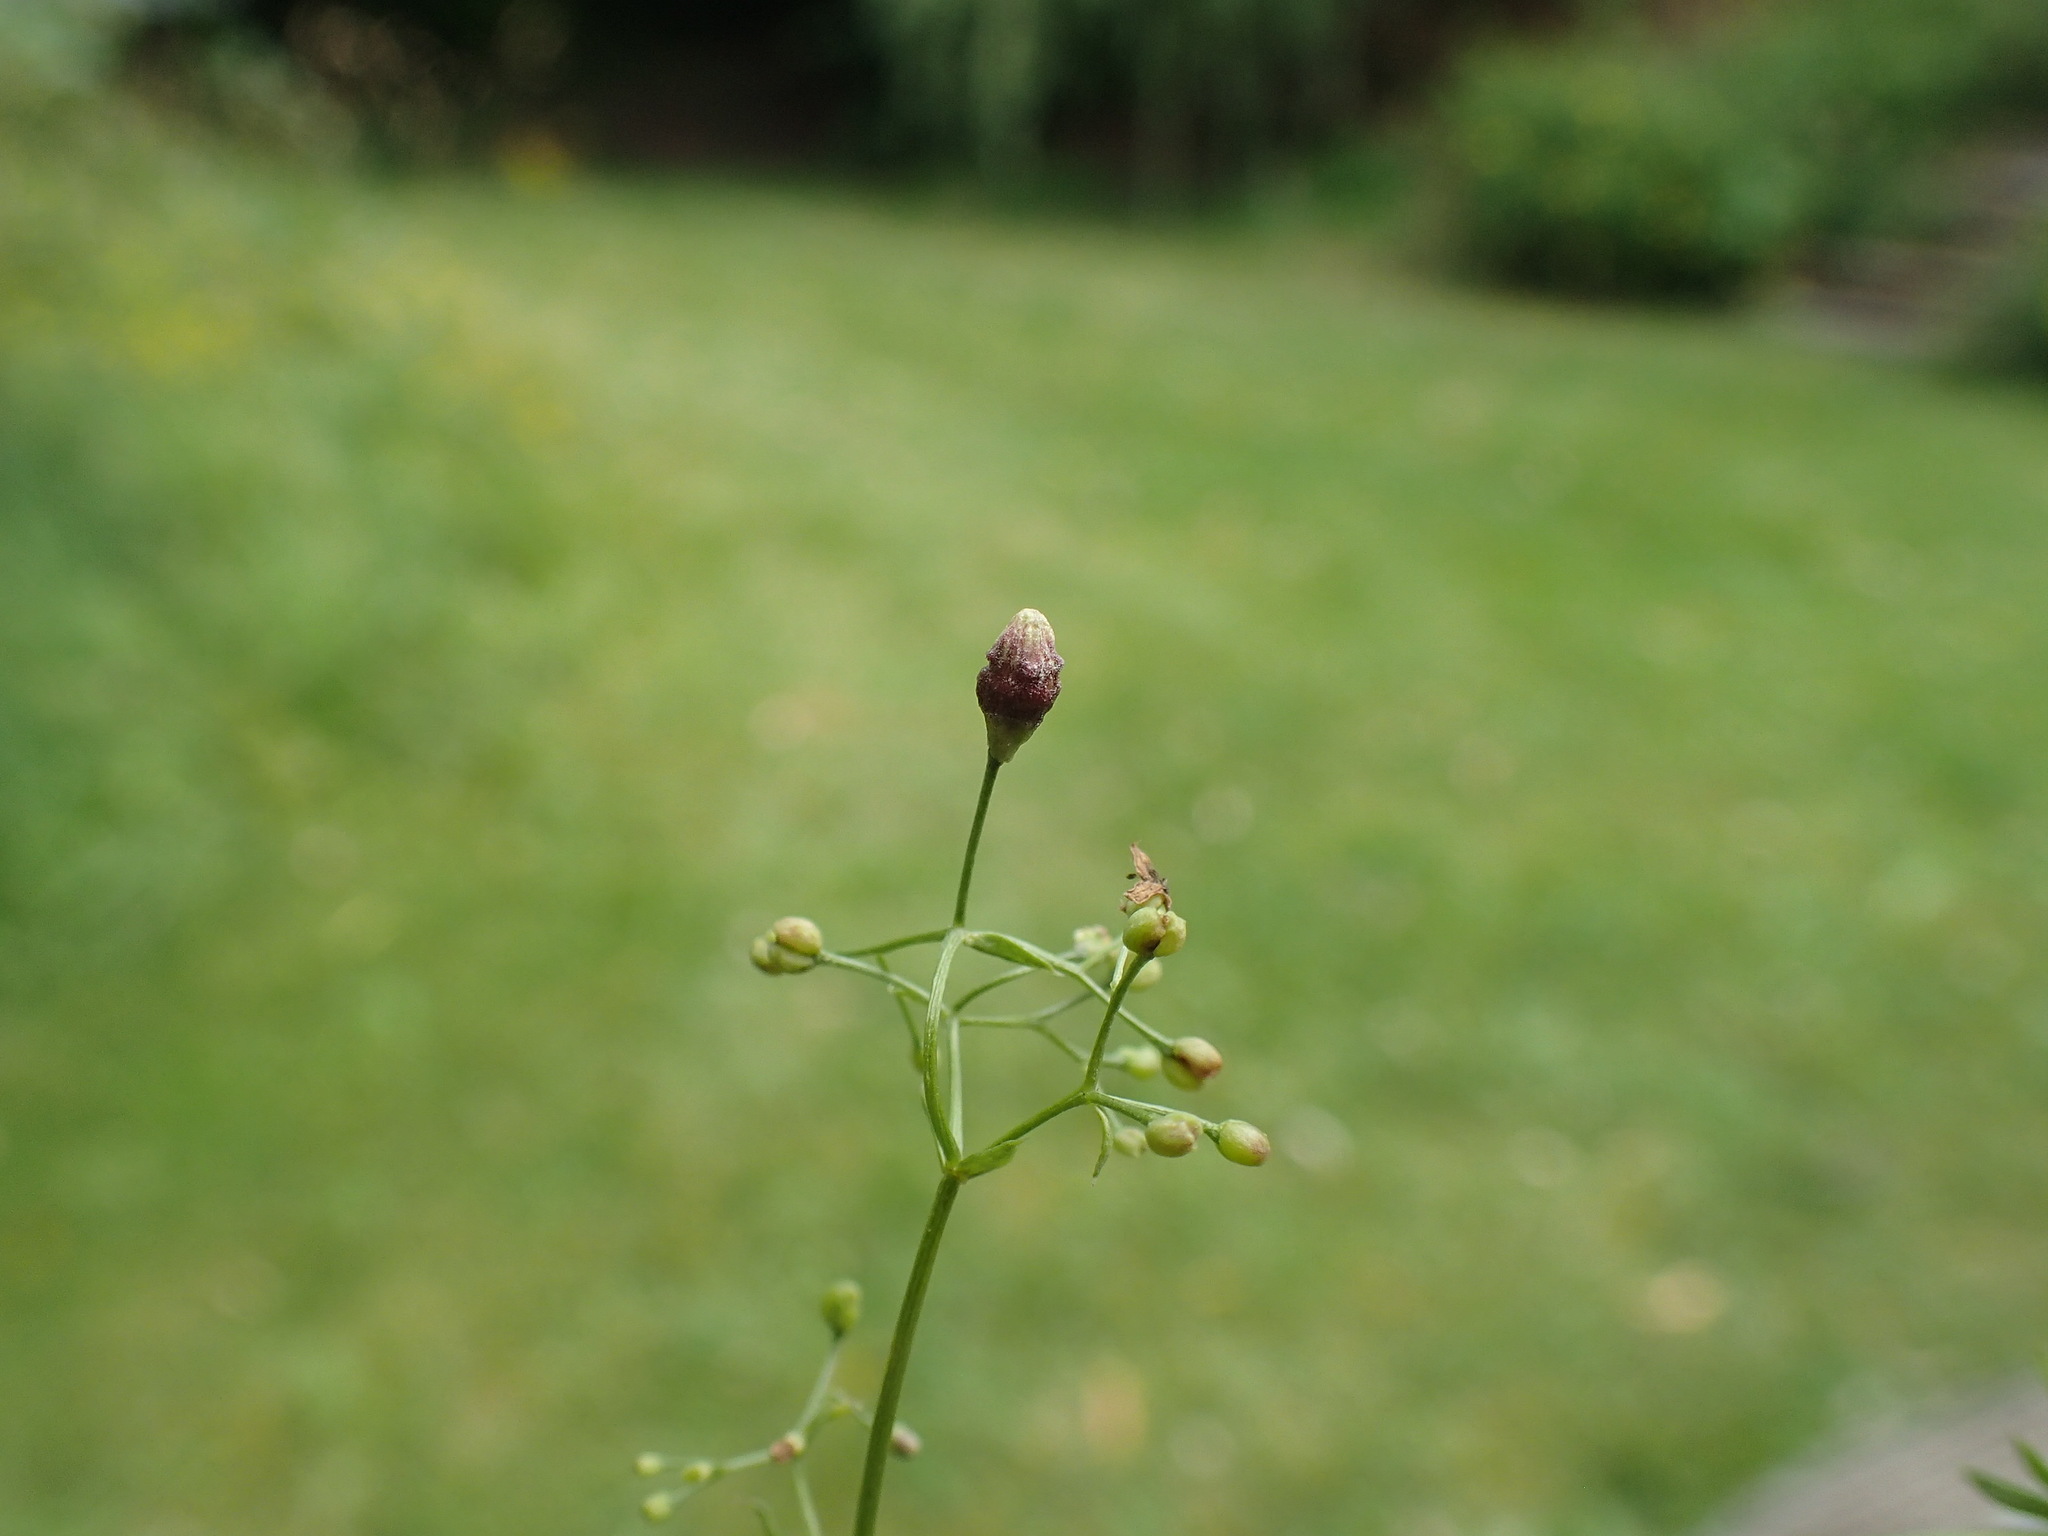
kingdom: Animalia
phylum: Arthropoda
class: Insecta
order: Diptera
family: Cecidomyiidae
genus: Schizomyia
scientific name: Schizomyia galiorum
